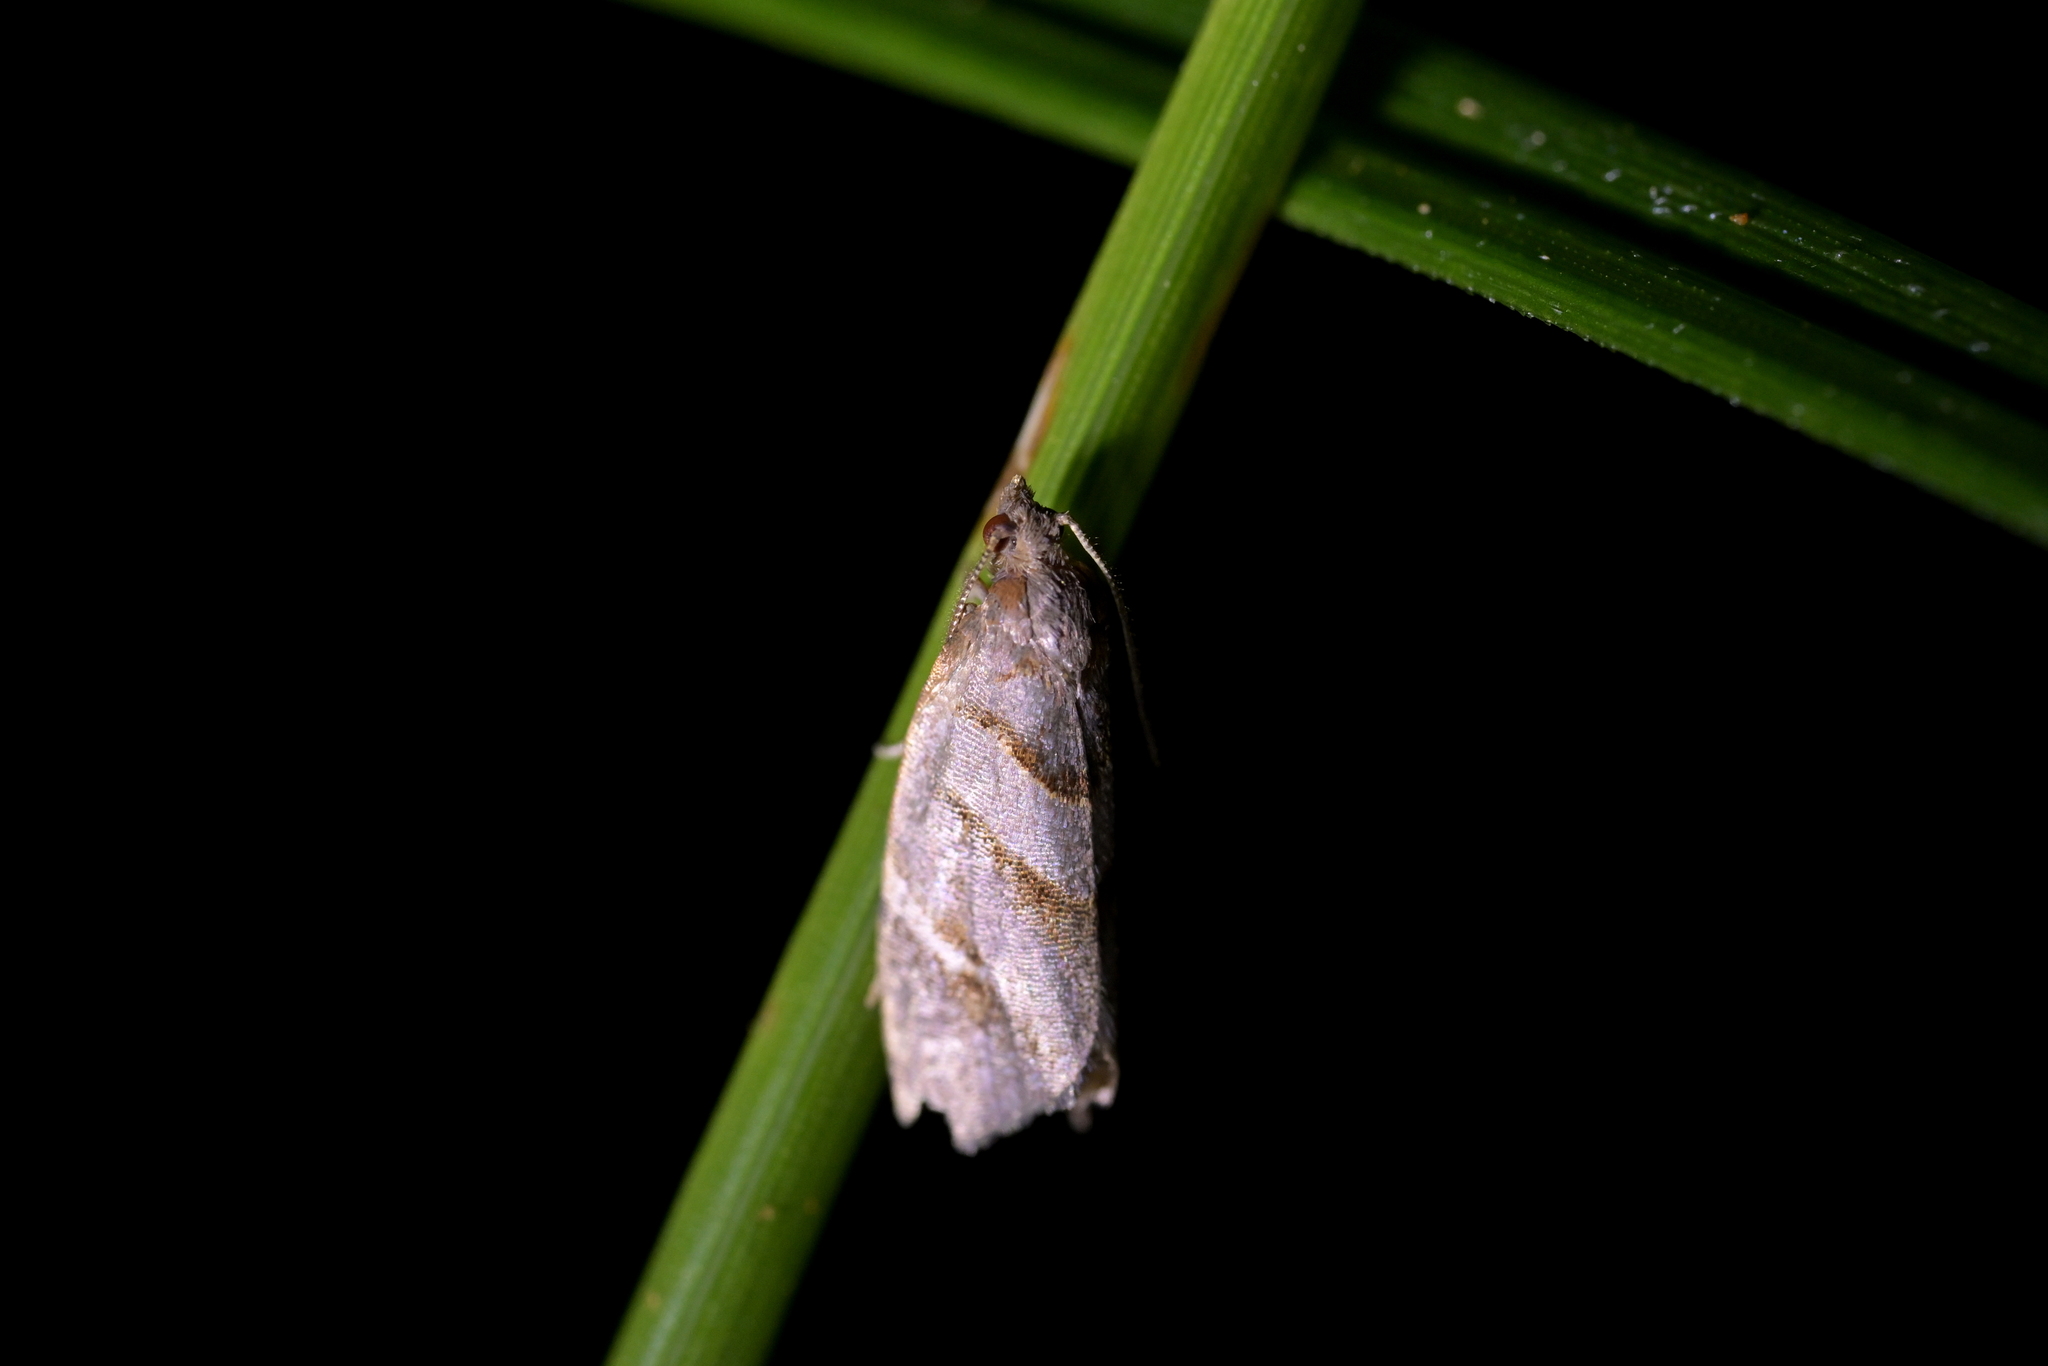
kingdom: Animalia
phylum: Arthropoda
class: Insecta
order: Lepidoptera
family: Tortricidae
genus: Ecclitica
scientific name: Ecclitica torogramma
